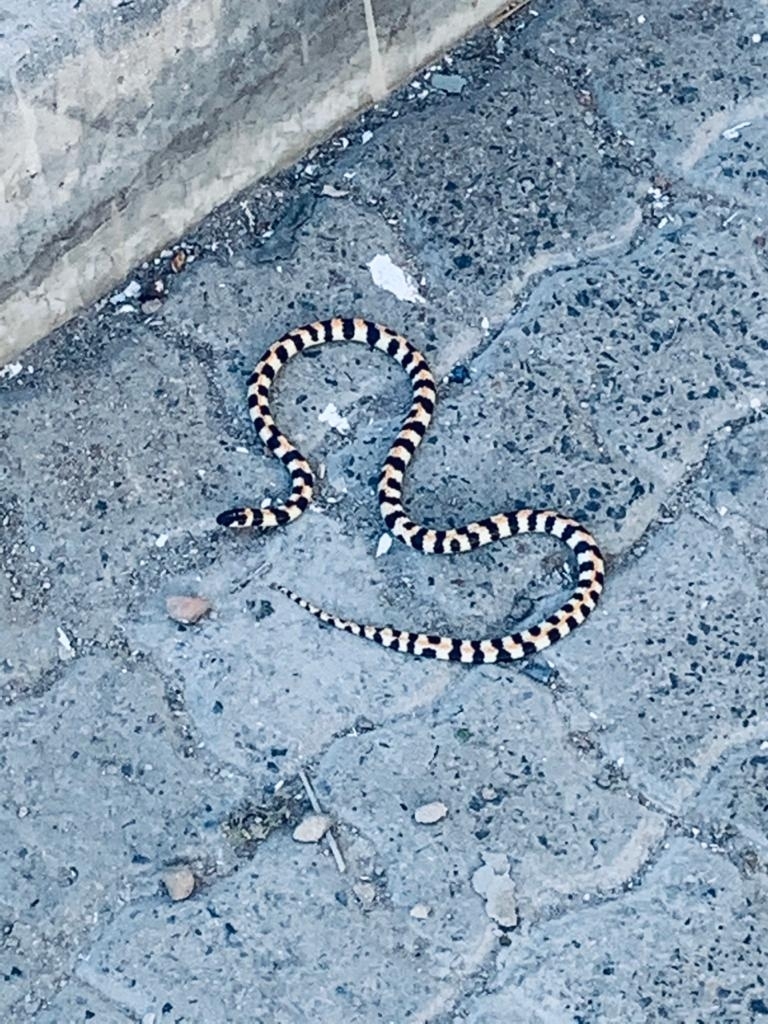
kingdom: Animalia
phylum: Chordata
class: Squamata
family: Atractaspididae
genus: Homoroselaps
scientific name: Homoroselaps lacteus
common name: Spotted harlequin snake
